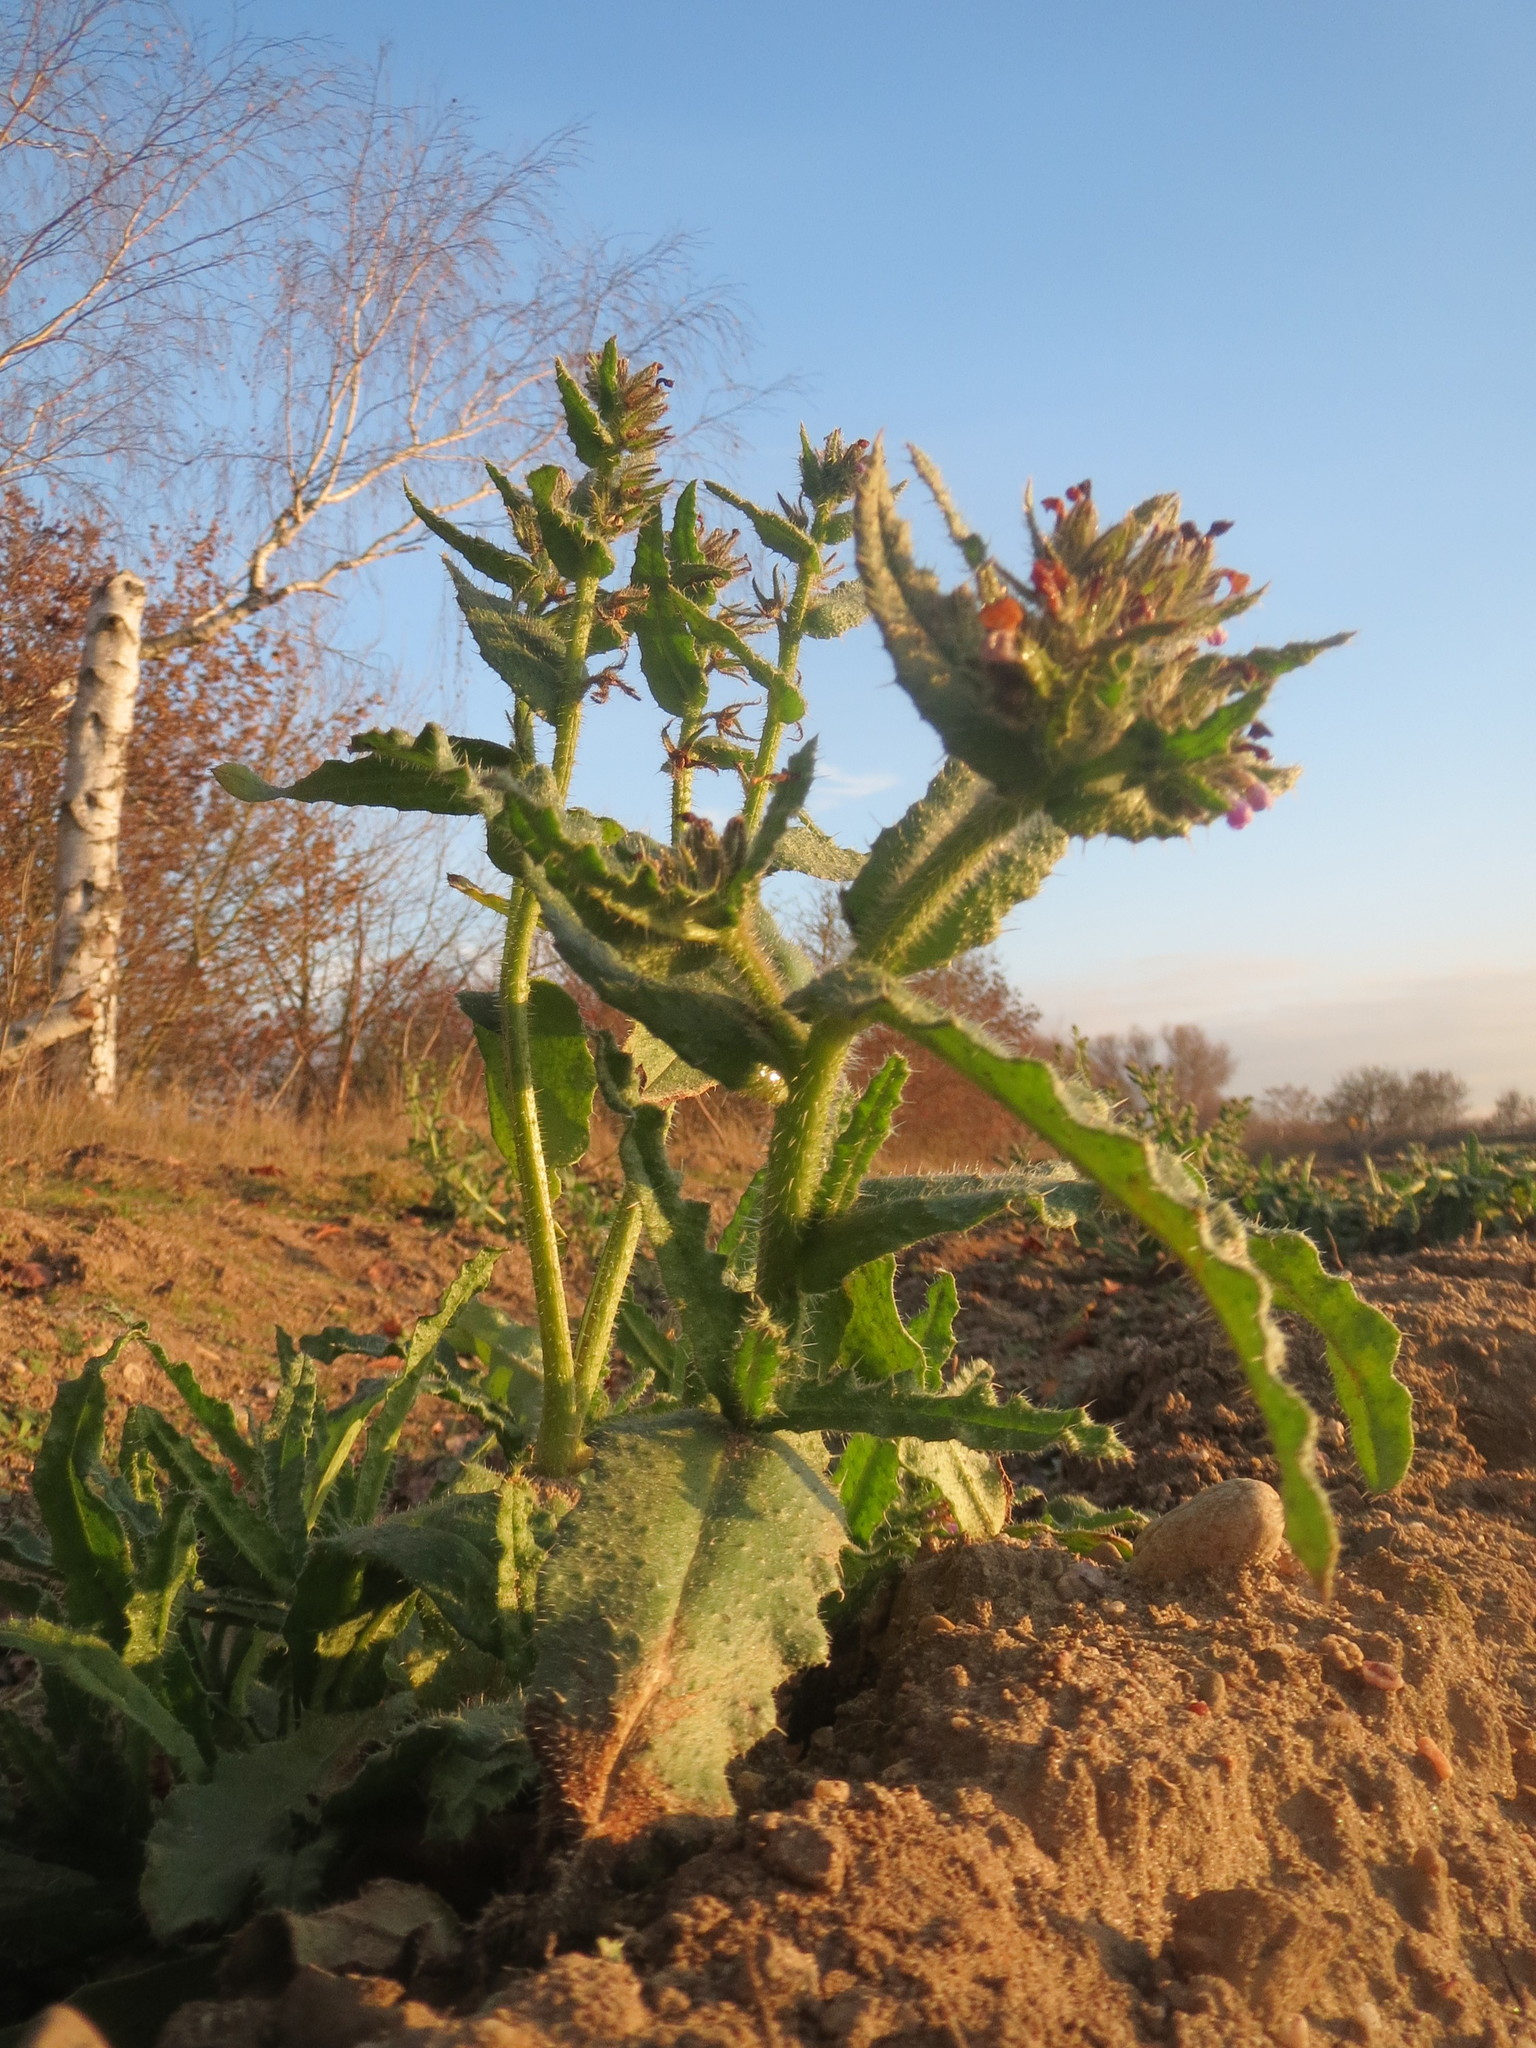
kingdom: Plantae
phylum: Tracheophyta
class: Magnoliopsida
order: Boraginales
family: Boraginaceae
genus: Lycopsis
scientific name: Lycopsis arvensis
